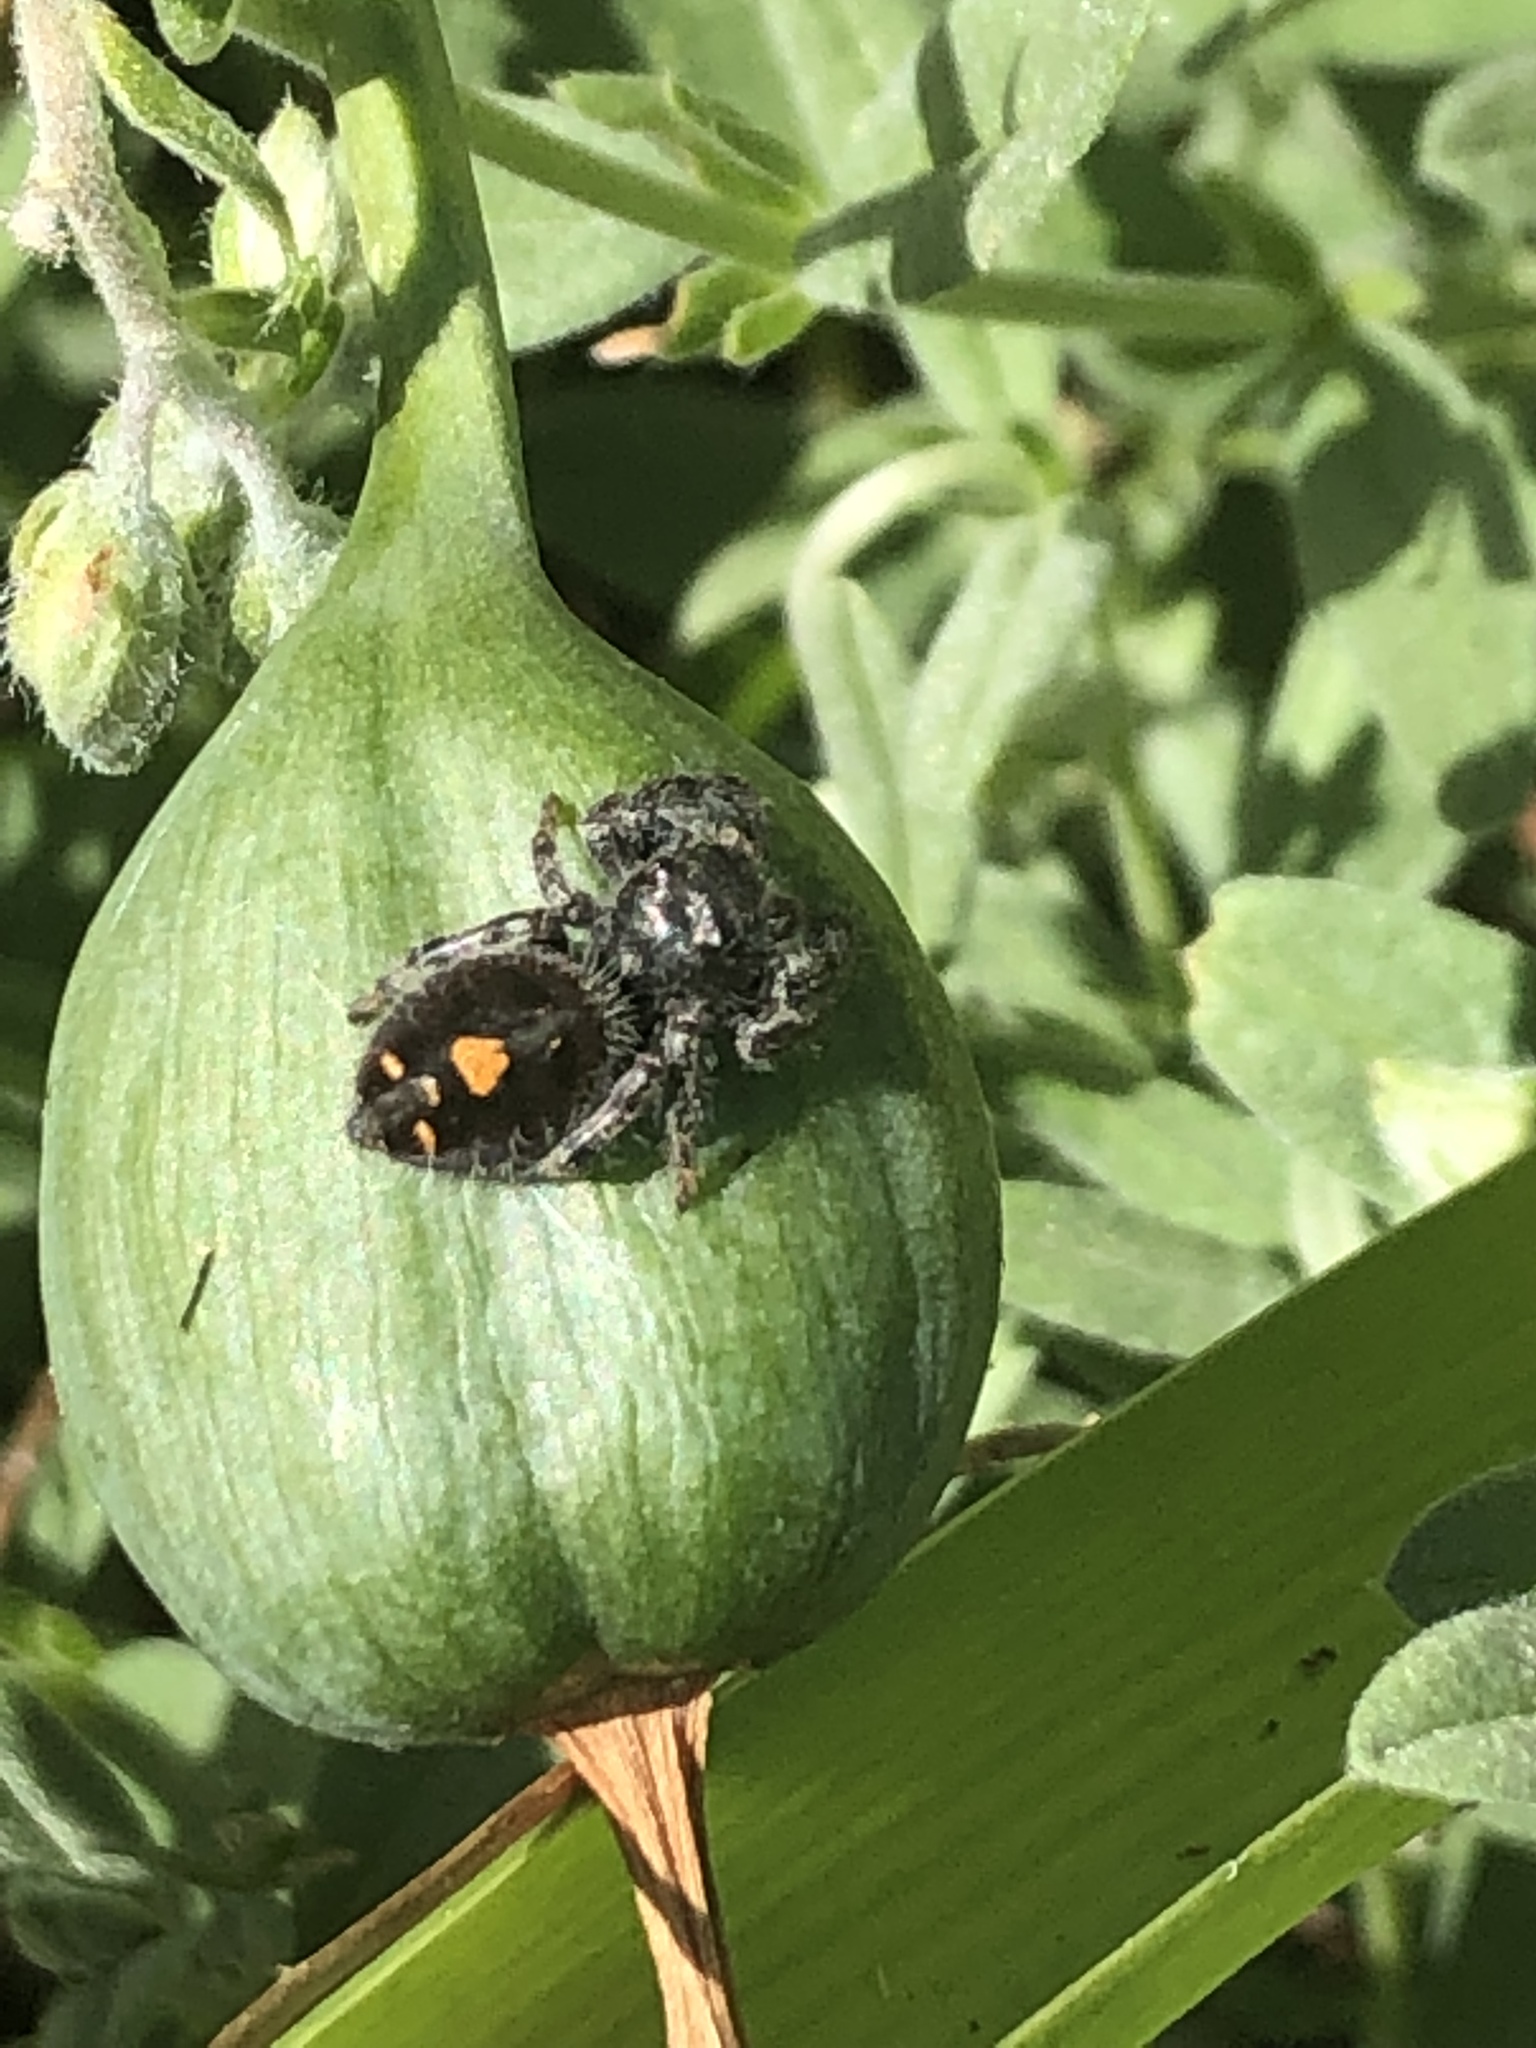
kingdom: Animalia
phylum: Arthropoda
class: Arachnida
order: Araneae
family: Salticidae
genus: Phidippus
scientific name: Phidippus audax
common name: Bold jumper
